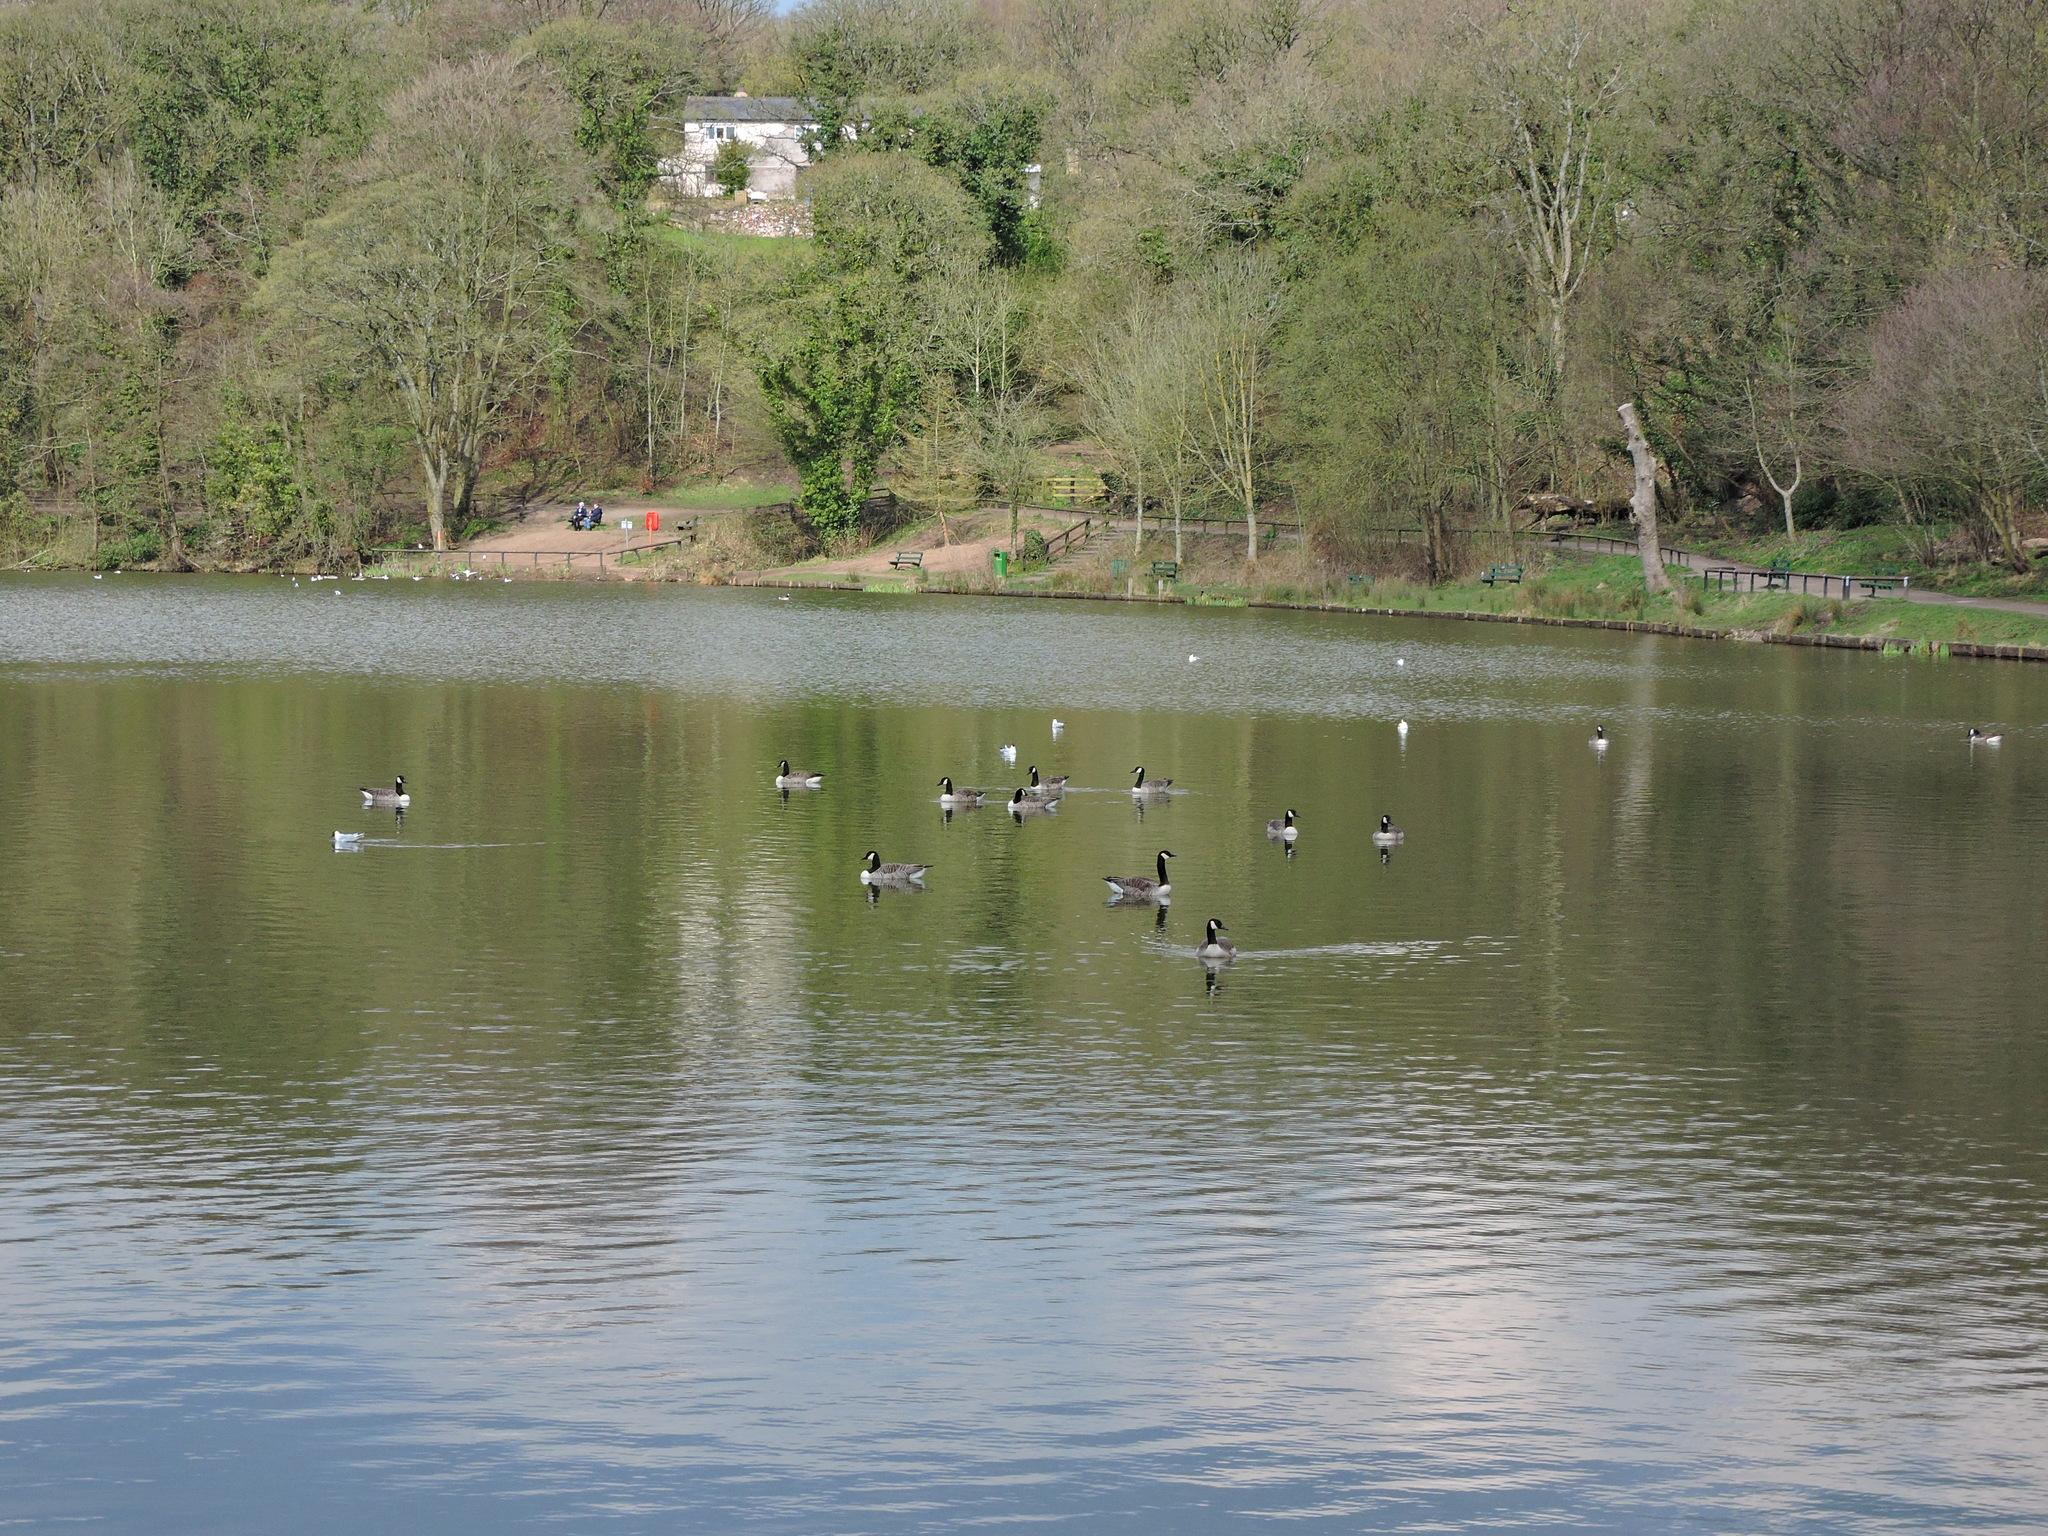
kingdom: Animalia
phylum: Chordata
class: Aves
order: Anseriformes
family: Anatidae
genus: Branta
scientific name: Branta canadensis
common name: Canada goose
